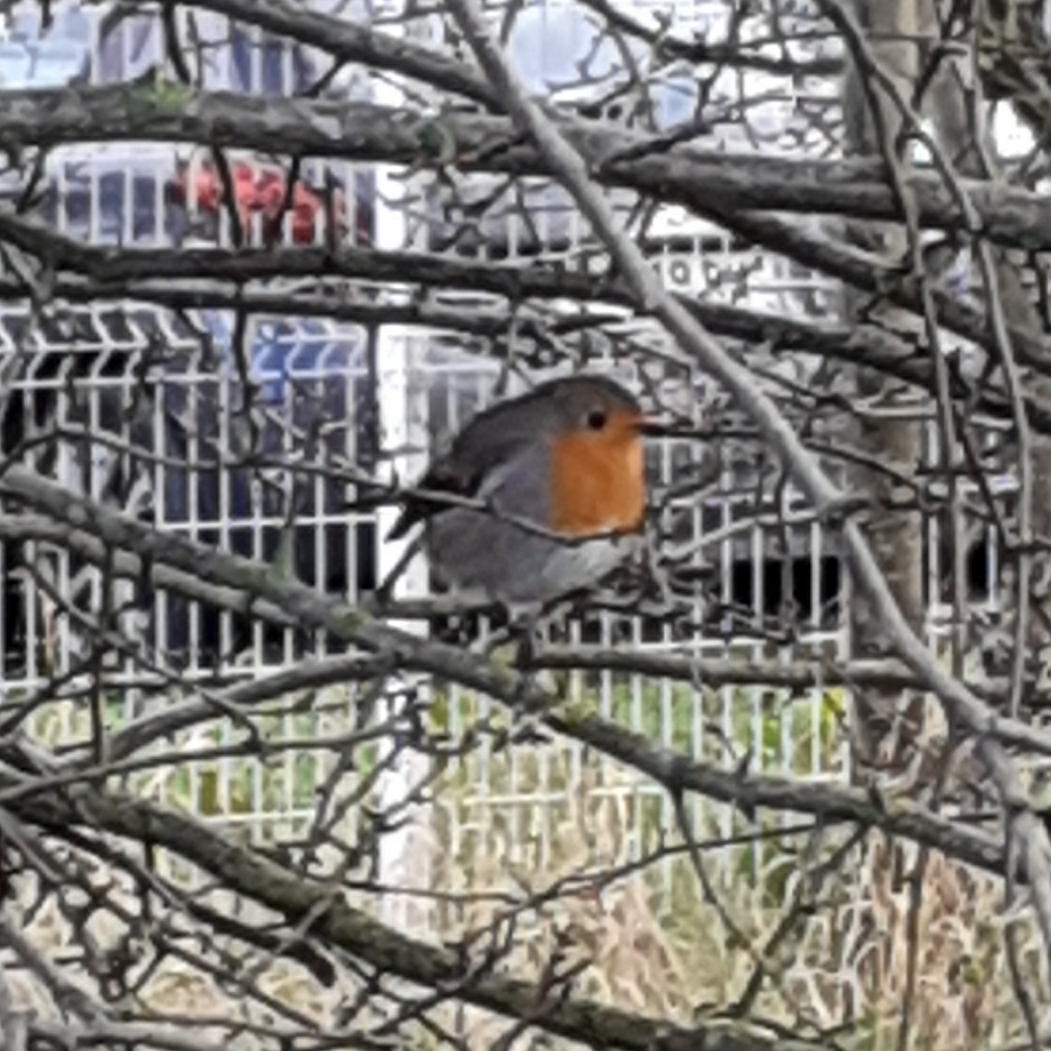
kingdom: Animalia
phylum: Chordata
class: Aves
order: Passeriformes
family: Muscicapidae
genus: Erithacus
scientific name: Erithacus rubecula
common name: European robin
